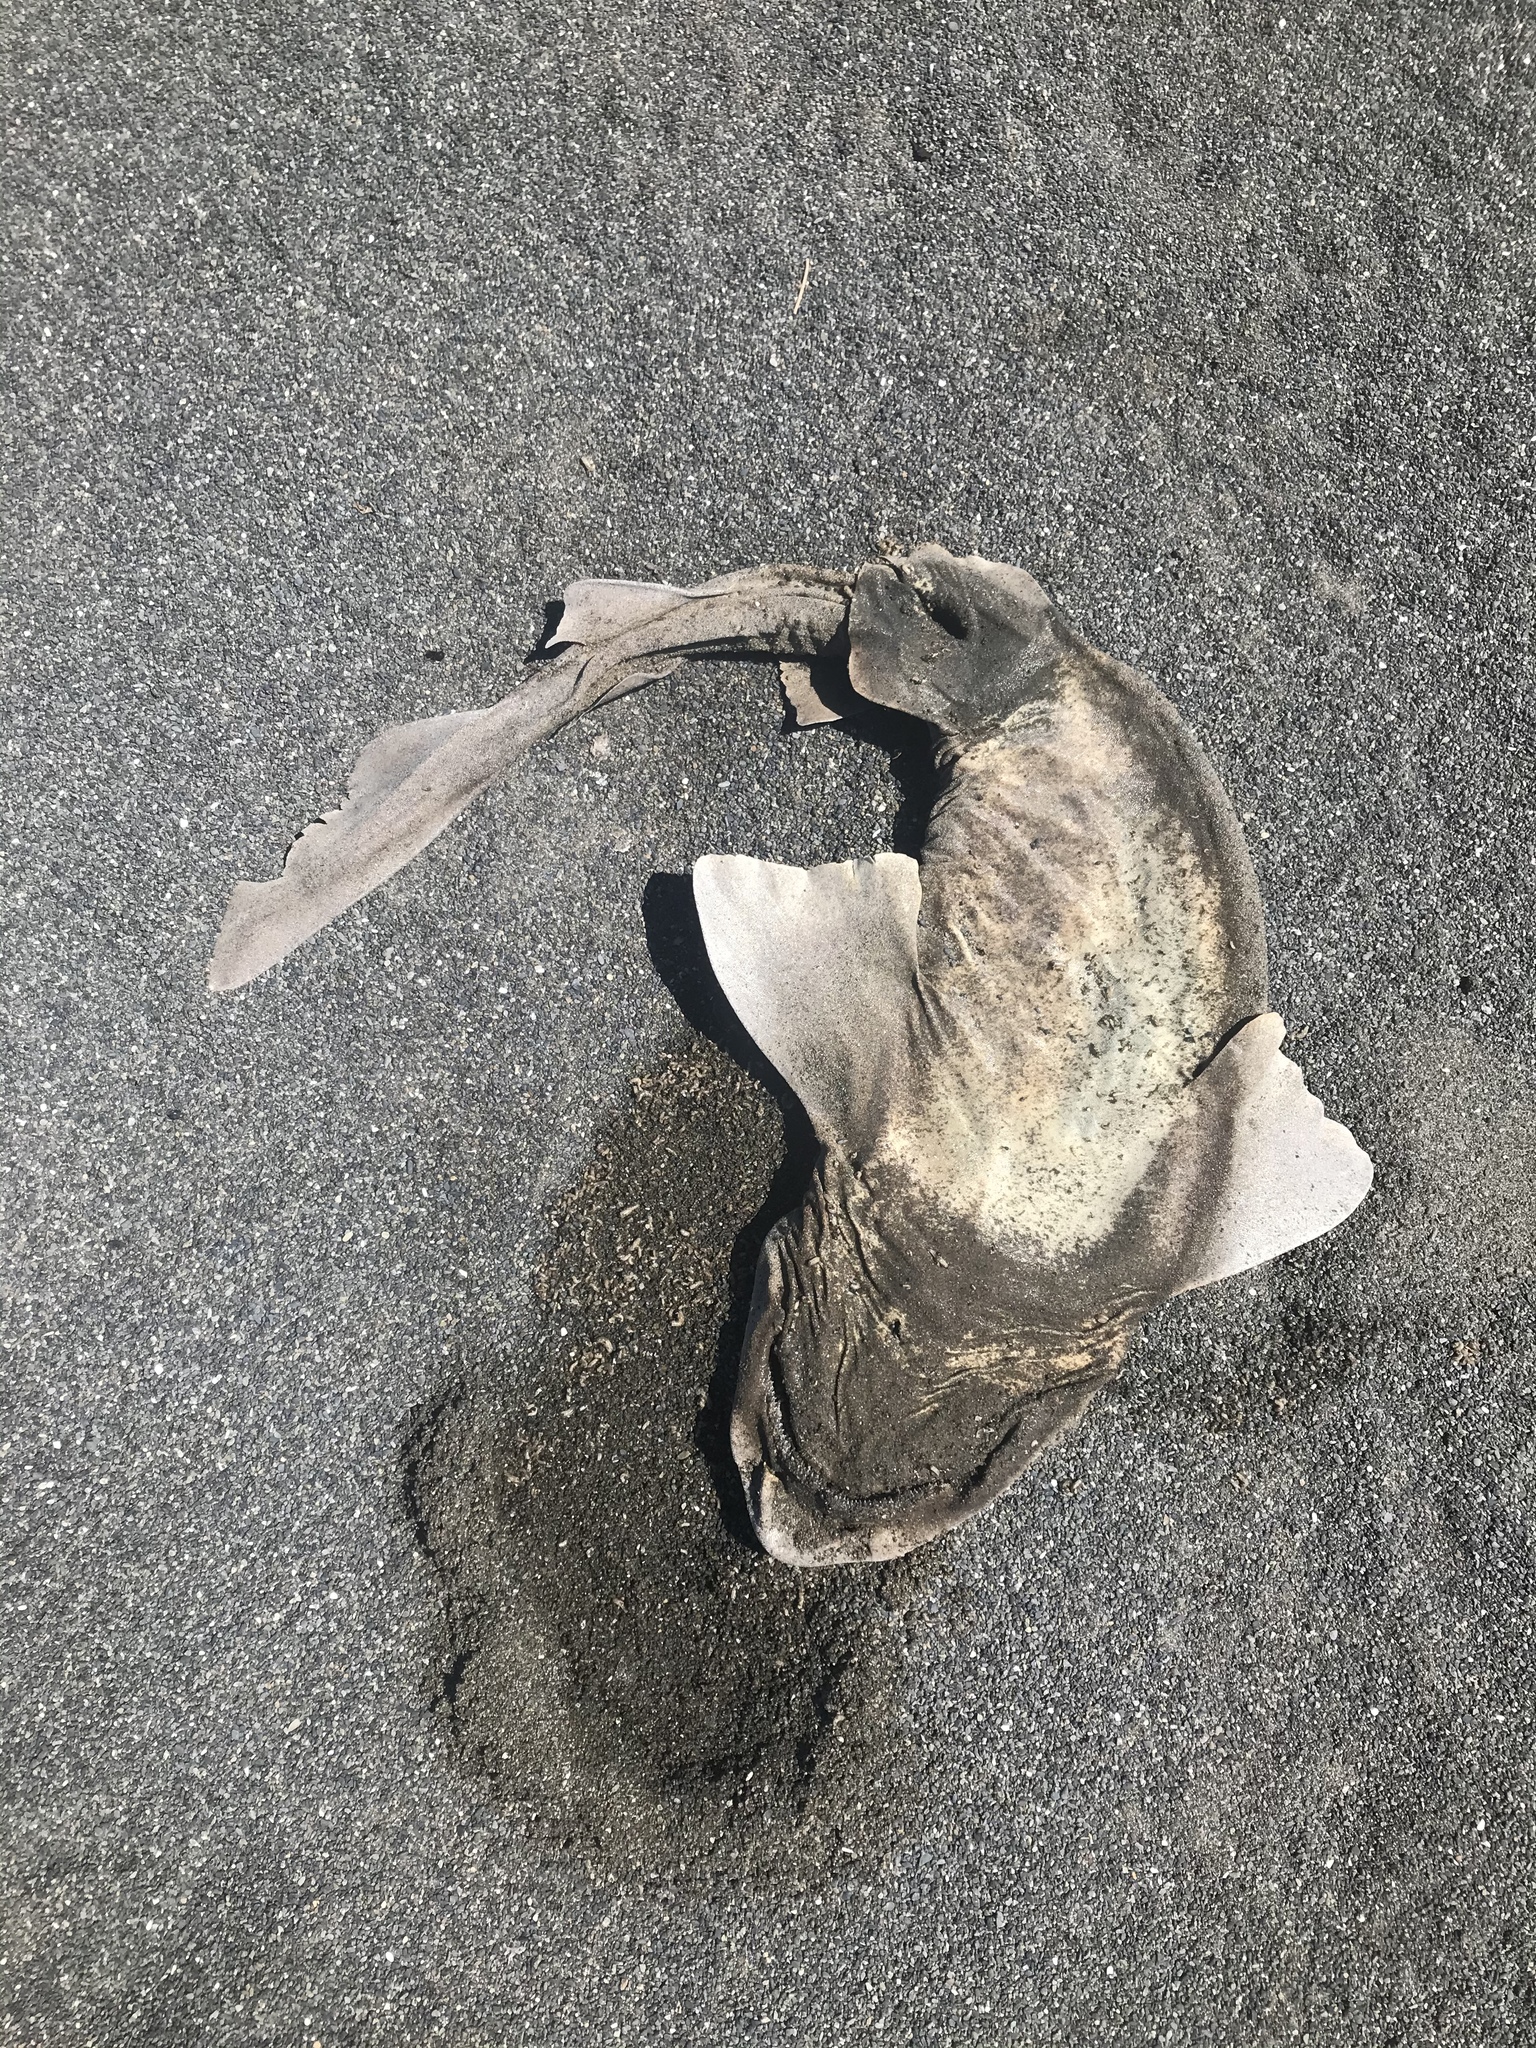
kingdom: Animalia
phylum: Chordata
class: Elasmobranchii
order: Carcharhiniformes
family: Scyliorhinidae
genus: Cephaloscyllium
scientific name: Cephaloscyllium isabellum
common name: Carpet shark
